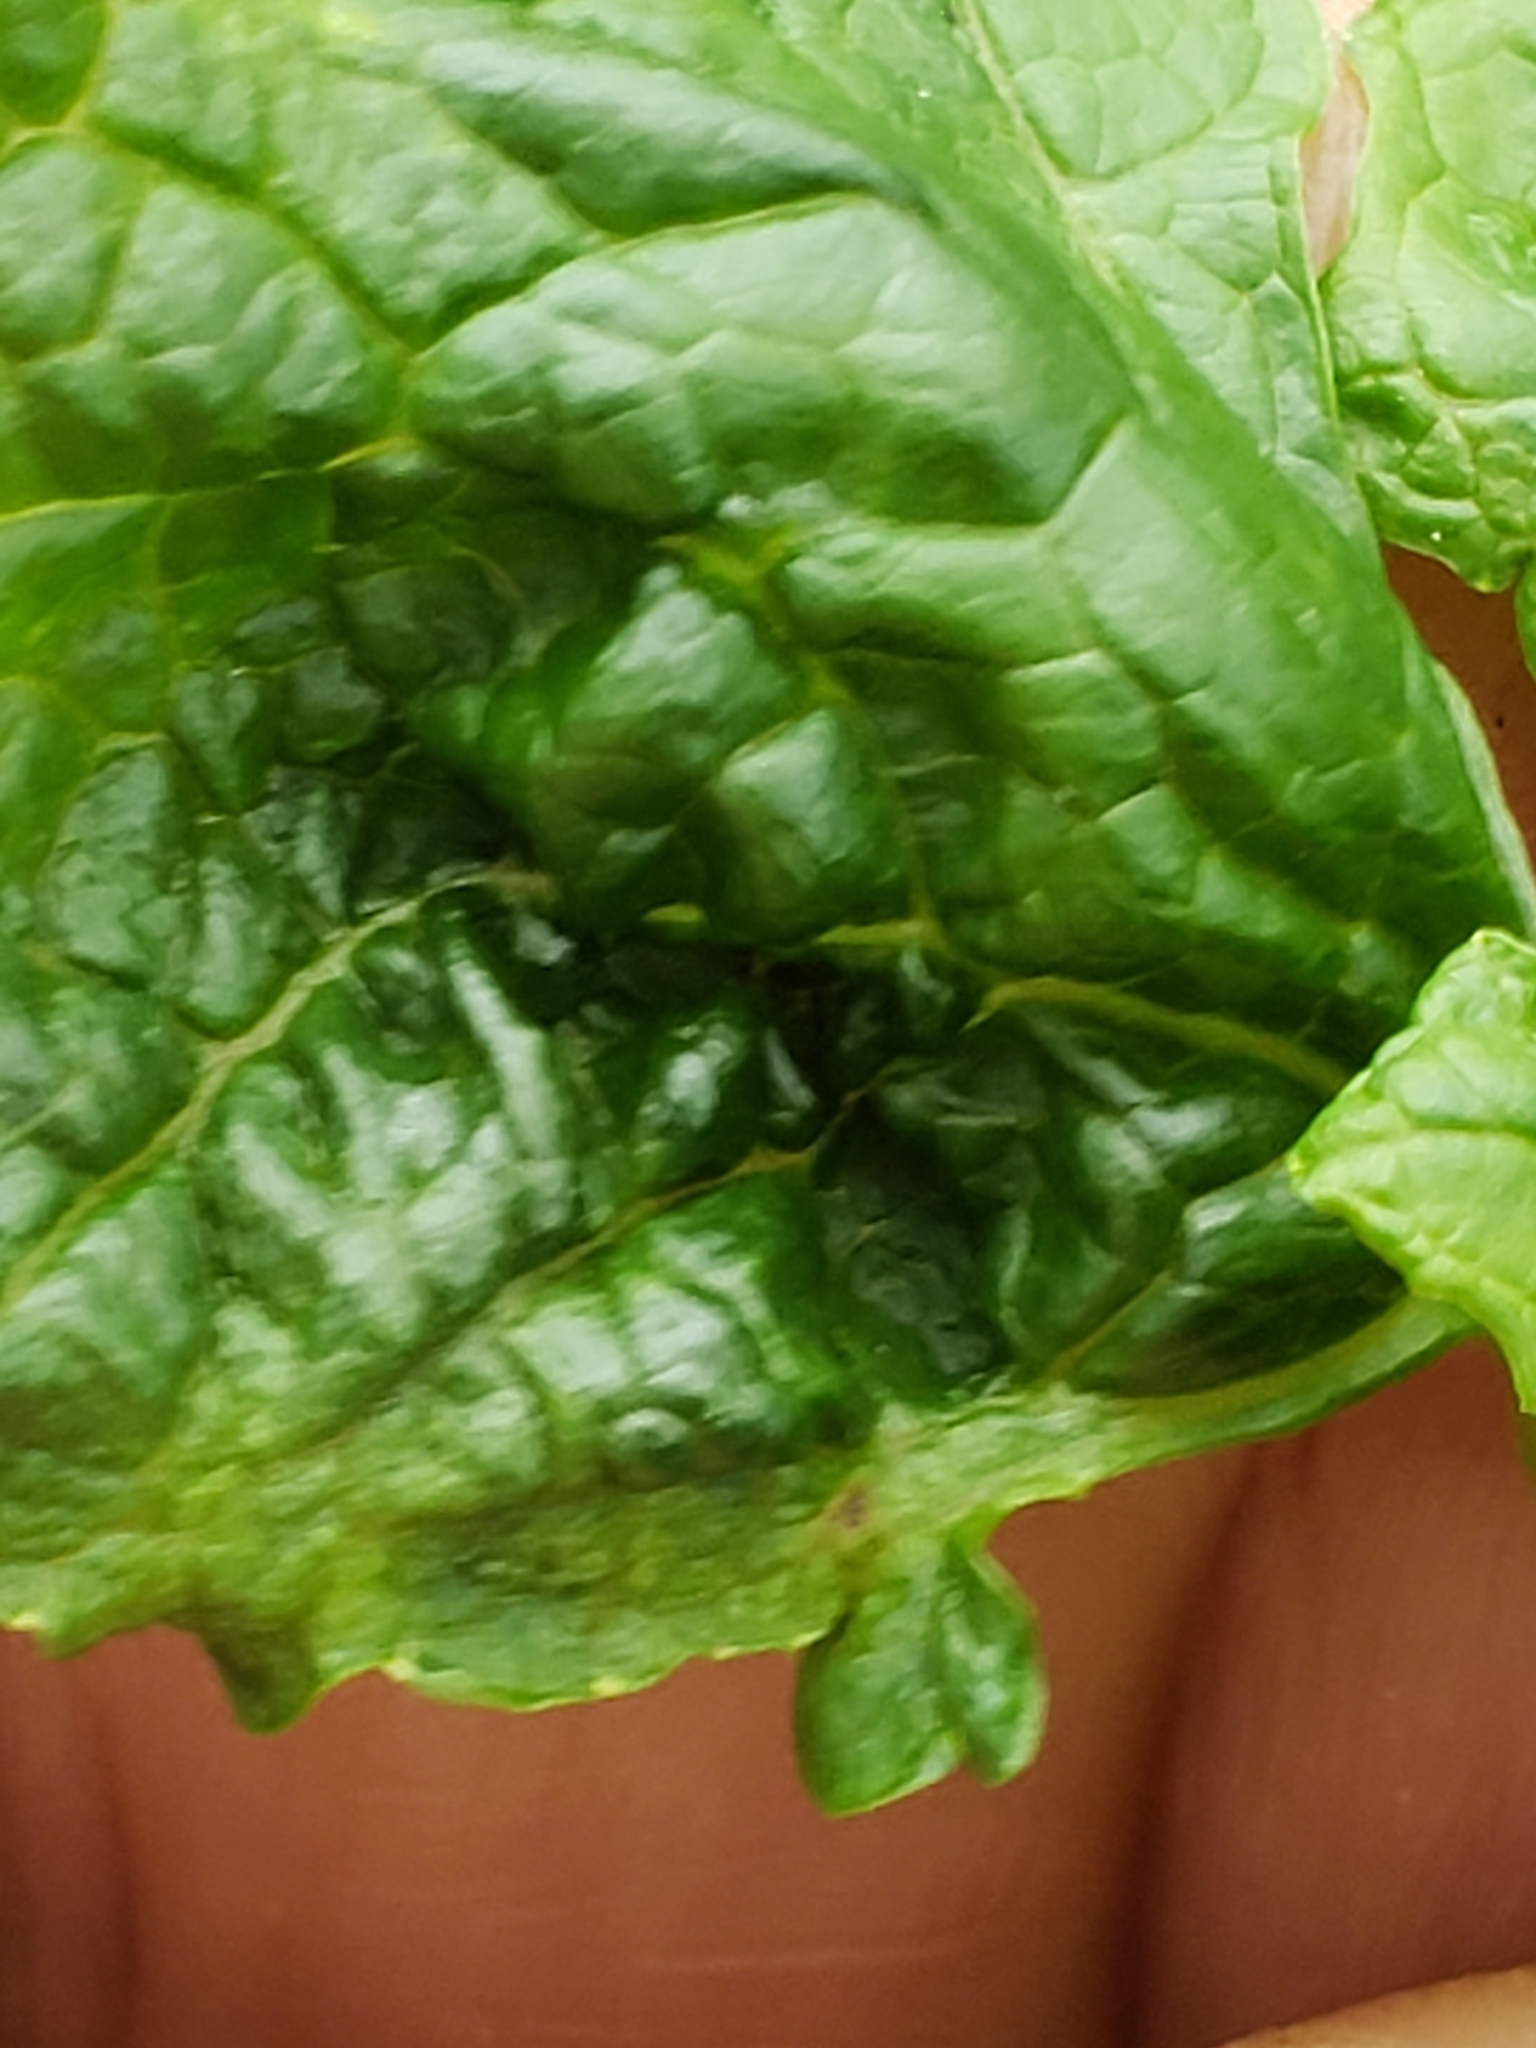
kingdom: Plantae
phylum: Tracheophyta
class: Magnoliopsida
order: Brassicales
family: Brassicaceae
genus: Alliaria
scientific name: Alliaria petiolata
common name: Garlic mustard
